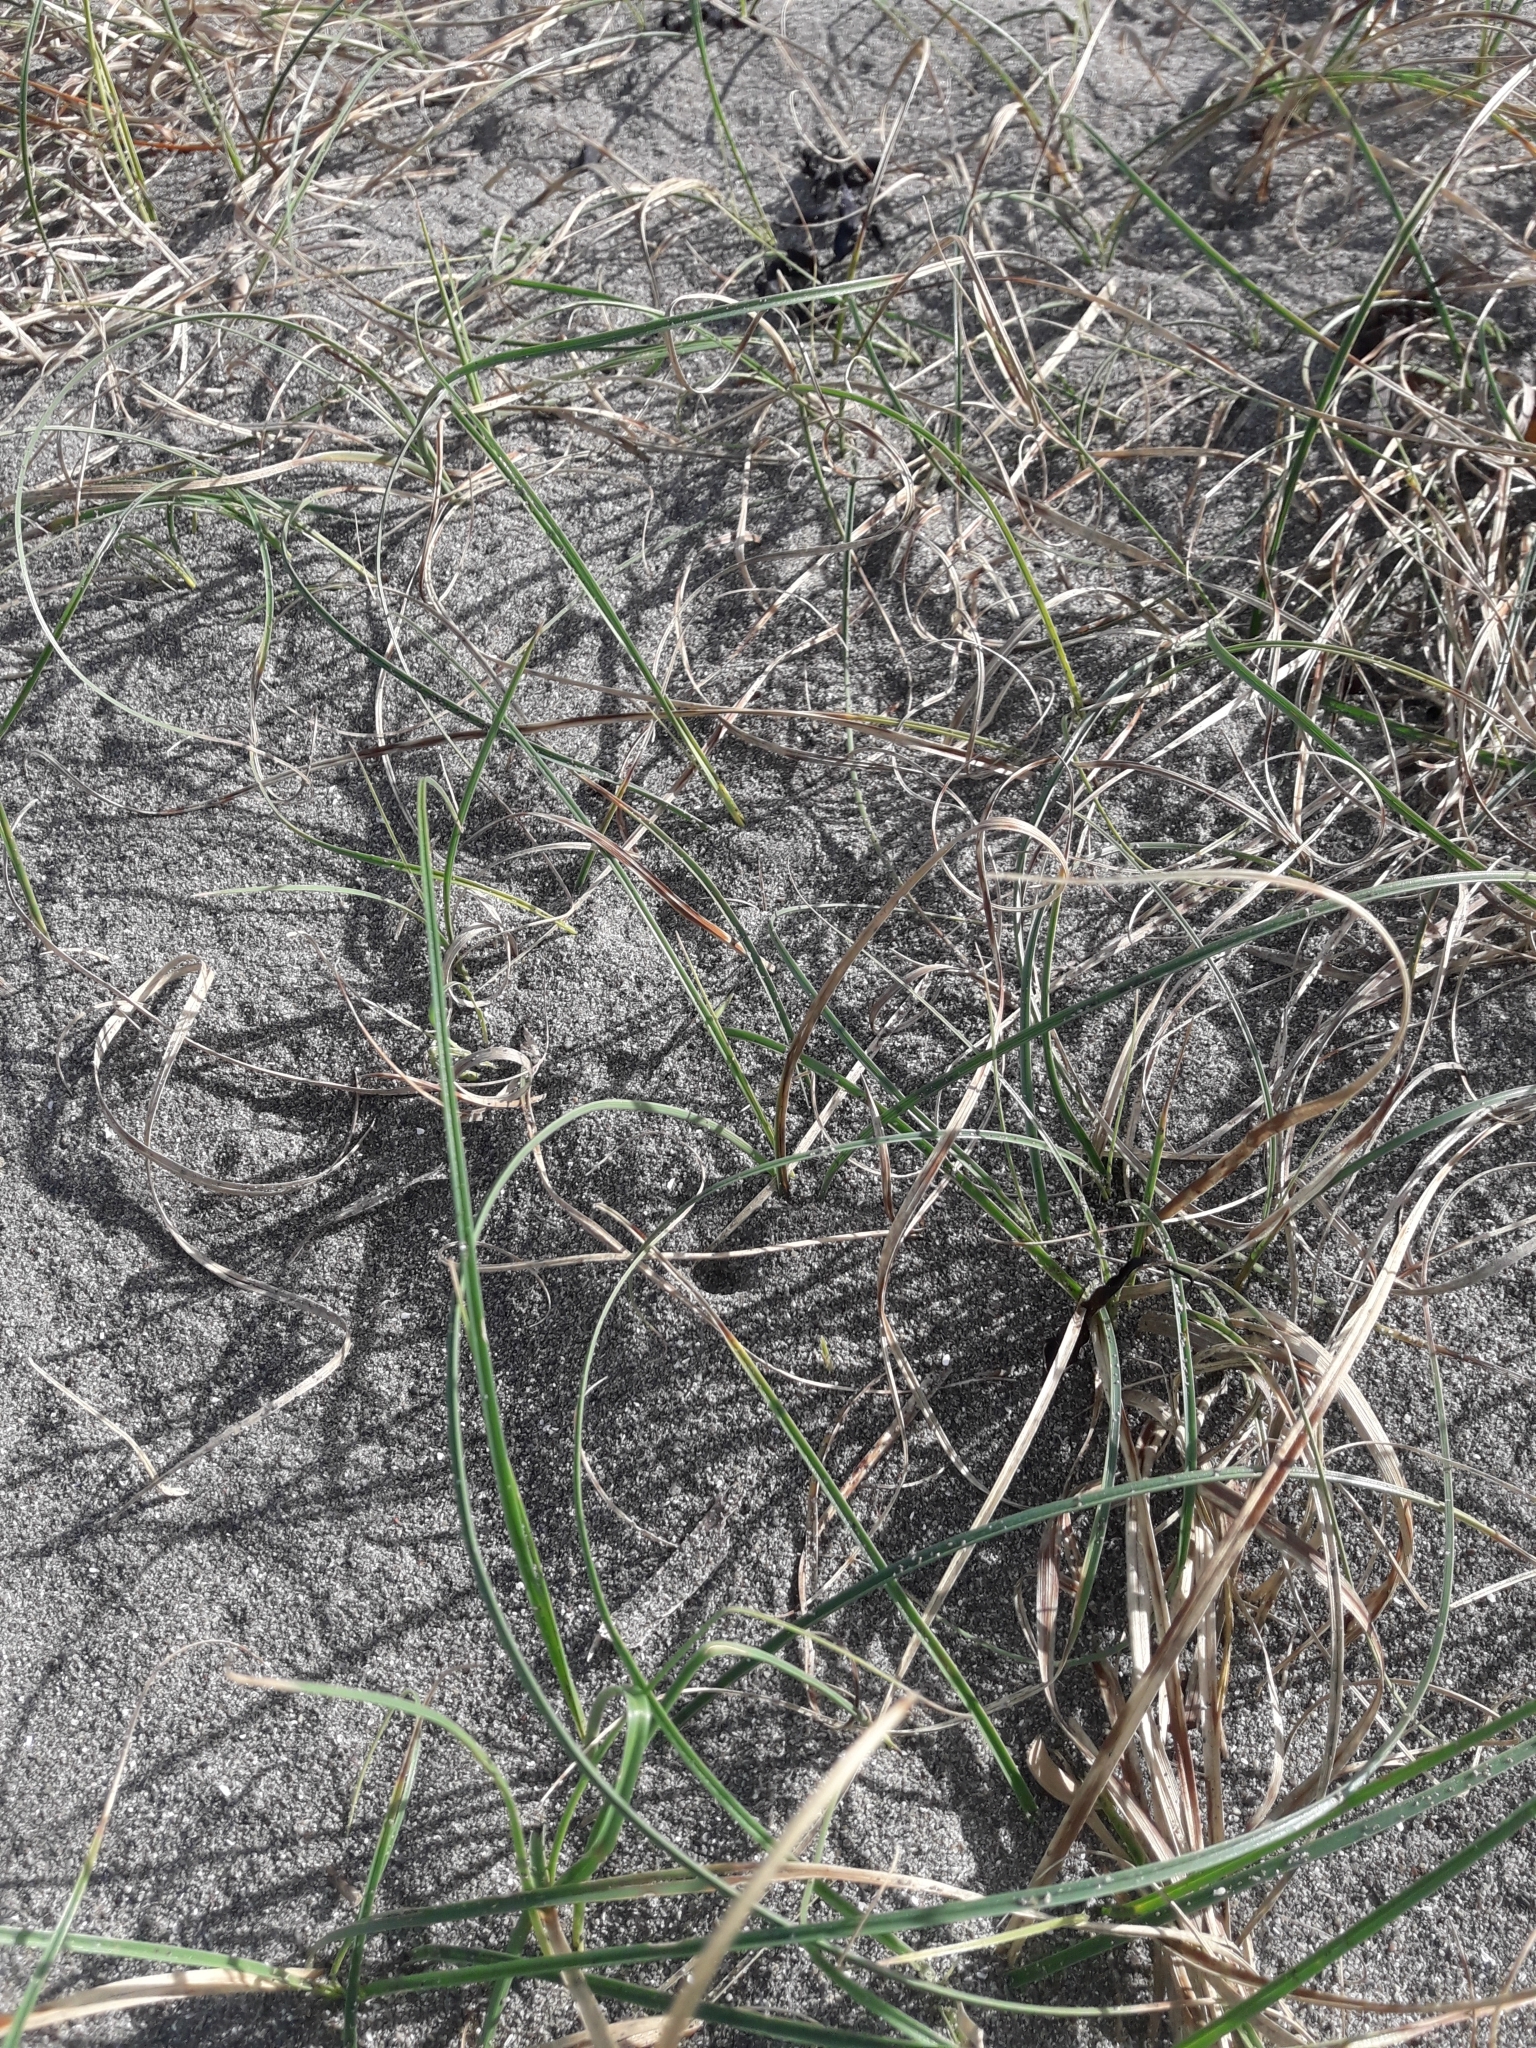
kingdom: Plantae
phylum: Tracheophyta
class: Liliopsida
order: Poales
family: Cyperaceae
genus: Carex
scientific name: Carex pumila
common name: Dwarf sedge
